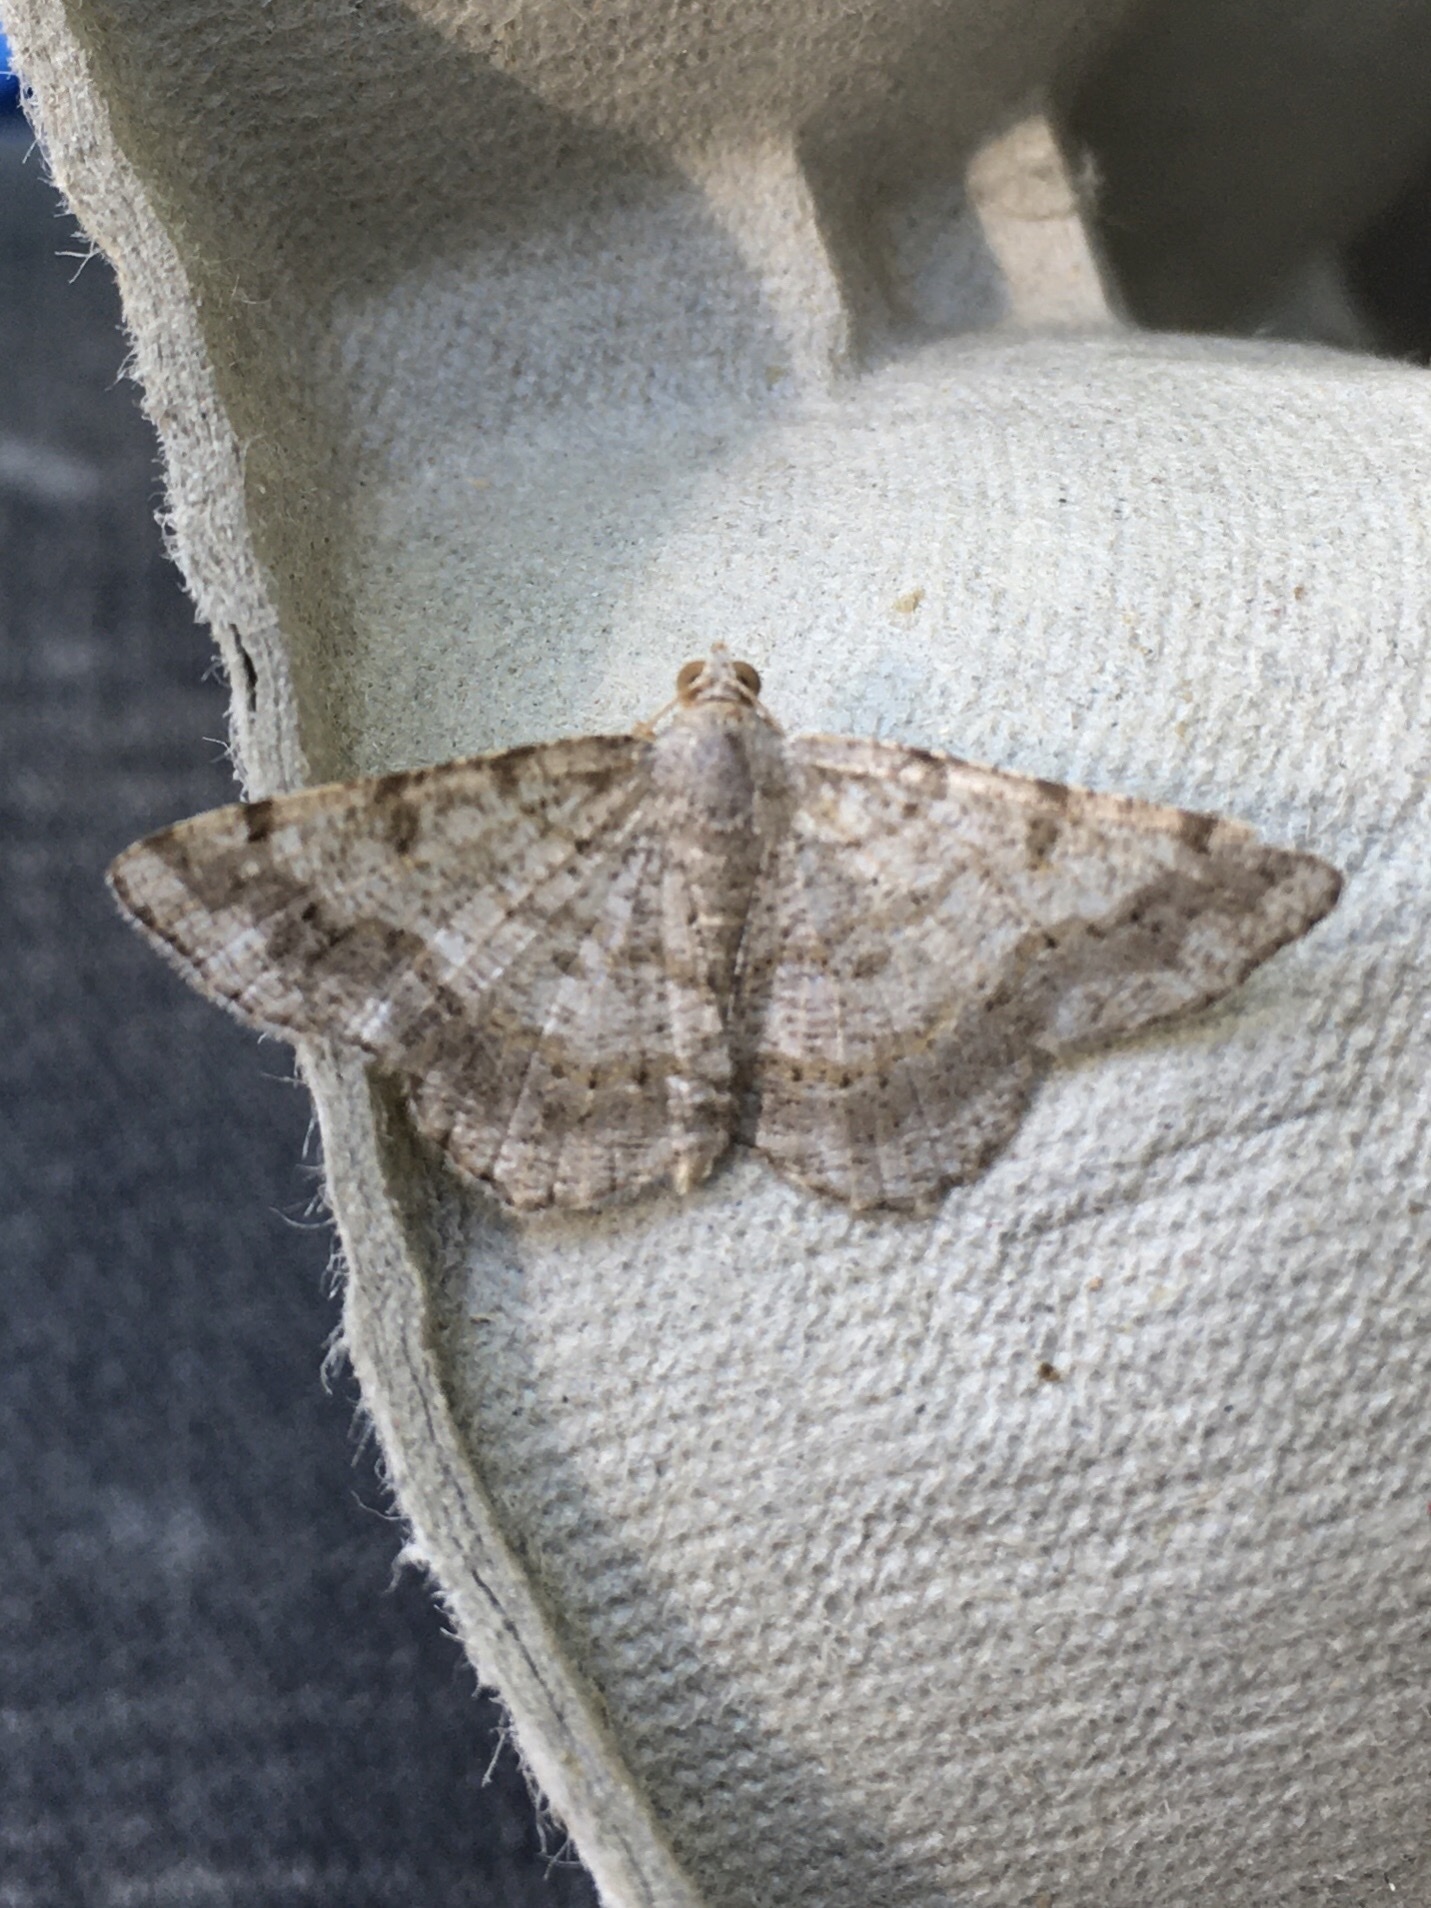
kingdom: Animalia
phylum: Arthropoda
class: Insecta
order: Lepidoptera
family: Geometridae
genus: Digrammia
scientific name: Digrammia ocellinata
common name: Faint-spotted angle
